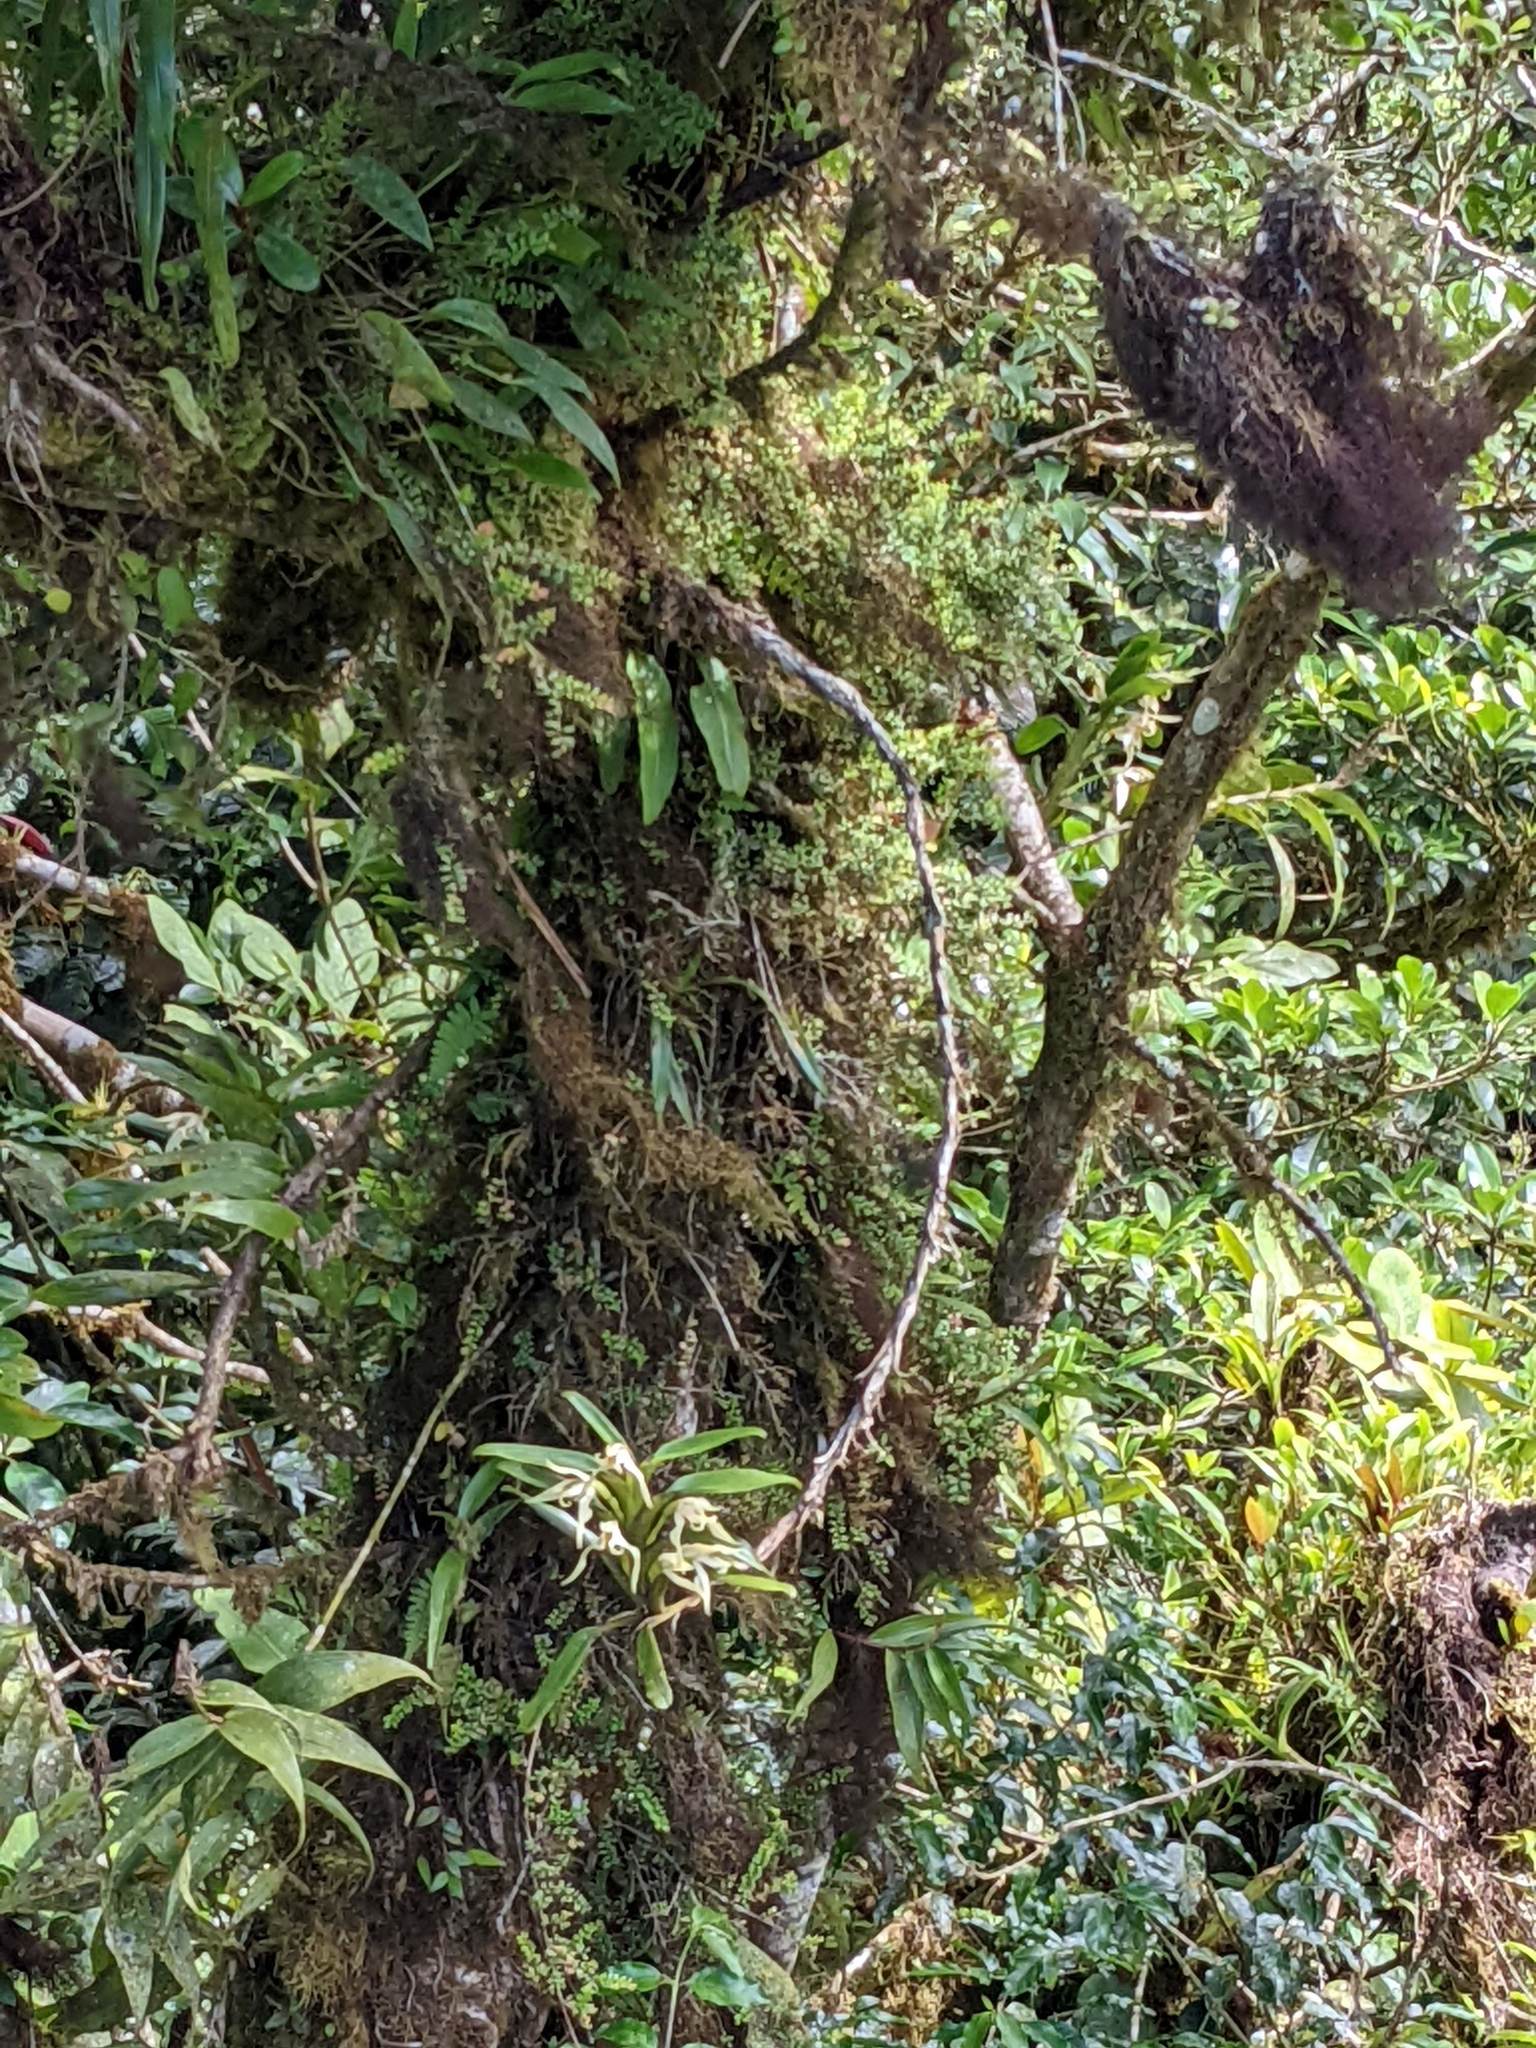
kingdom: Plantae
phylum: Tracheophyta
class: Liliopsida
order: Asparagales
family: Orchidaceae
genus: Maxillaria
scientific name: Maxillaria inaudita
